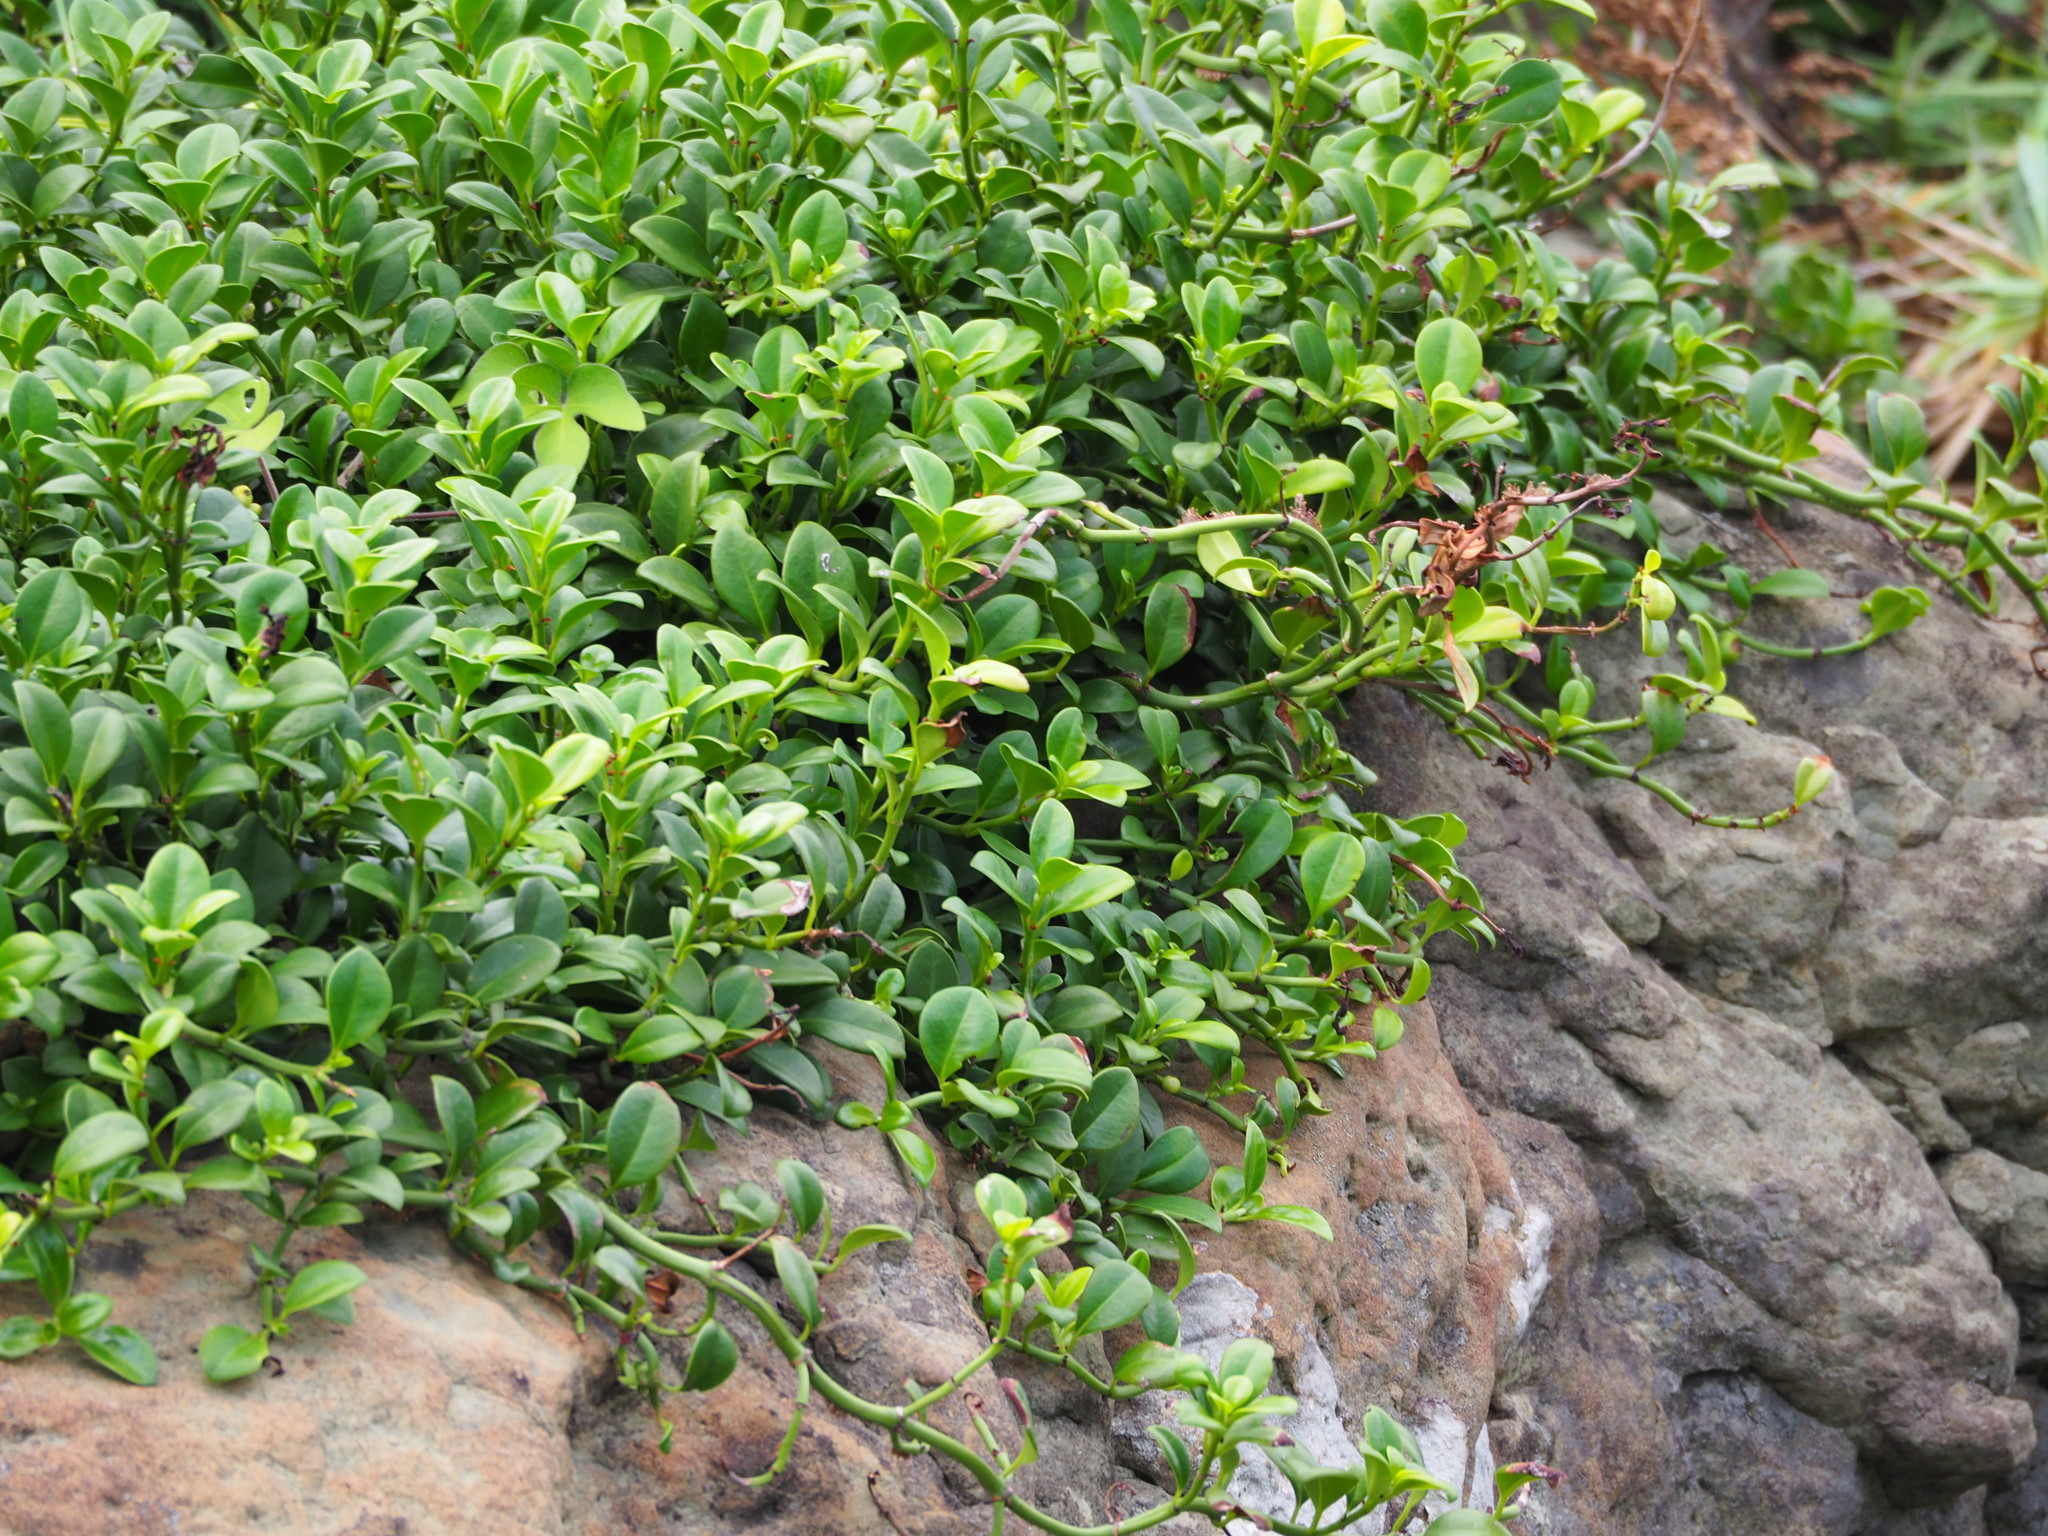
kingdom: Plantae
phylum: Tracheophyta
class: Magnoliopsida
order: Gentianales
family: Rubiaceae
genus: Psychotria
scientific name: Psychotria serpens
